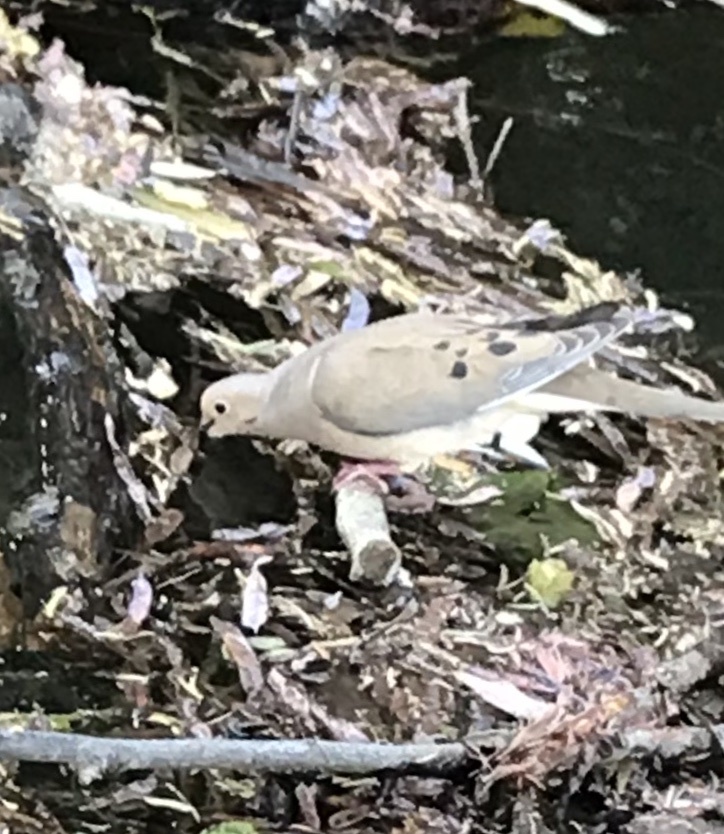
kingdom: Animalia
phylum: Chordata
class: Aves
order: Columbiformes
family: Columbidae
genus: Zenaida
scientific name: Zenaida macroura
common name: Mourning dove
